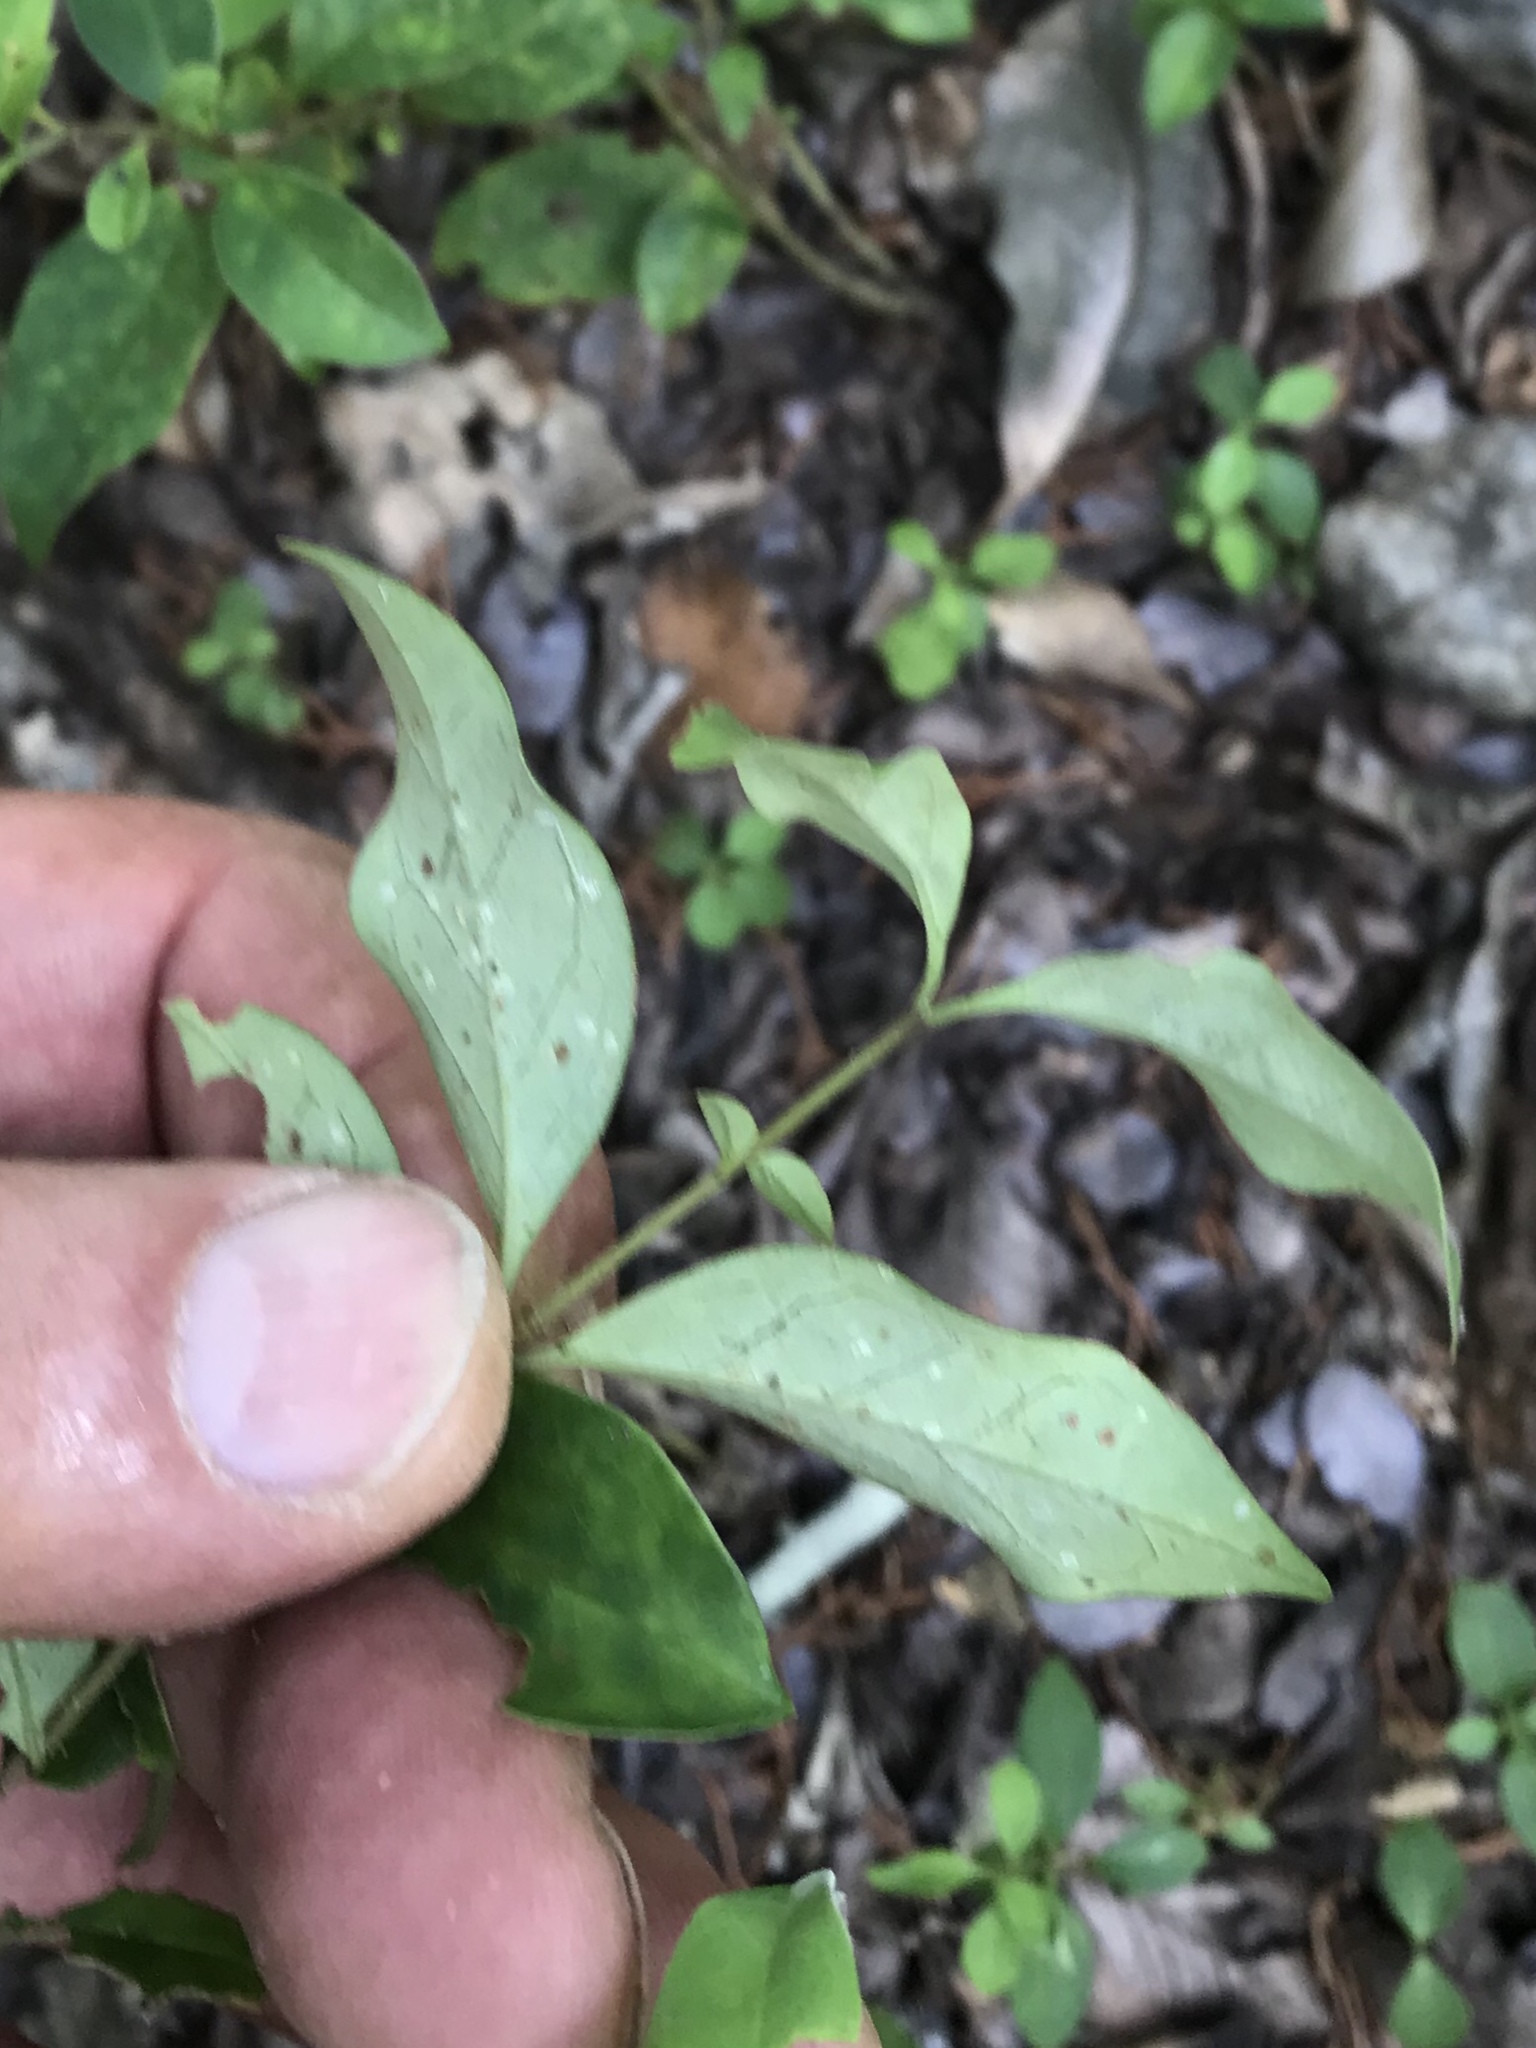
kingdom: Plantae
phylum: Tracheophyta
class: Magnoliopsida
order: Lamiales
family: Oleaceae
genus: Ligustrum
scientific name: Ligustrum lucidum
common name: Glossy privet
